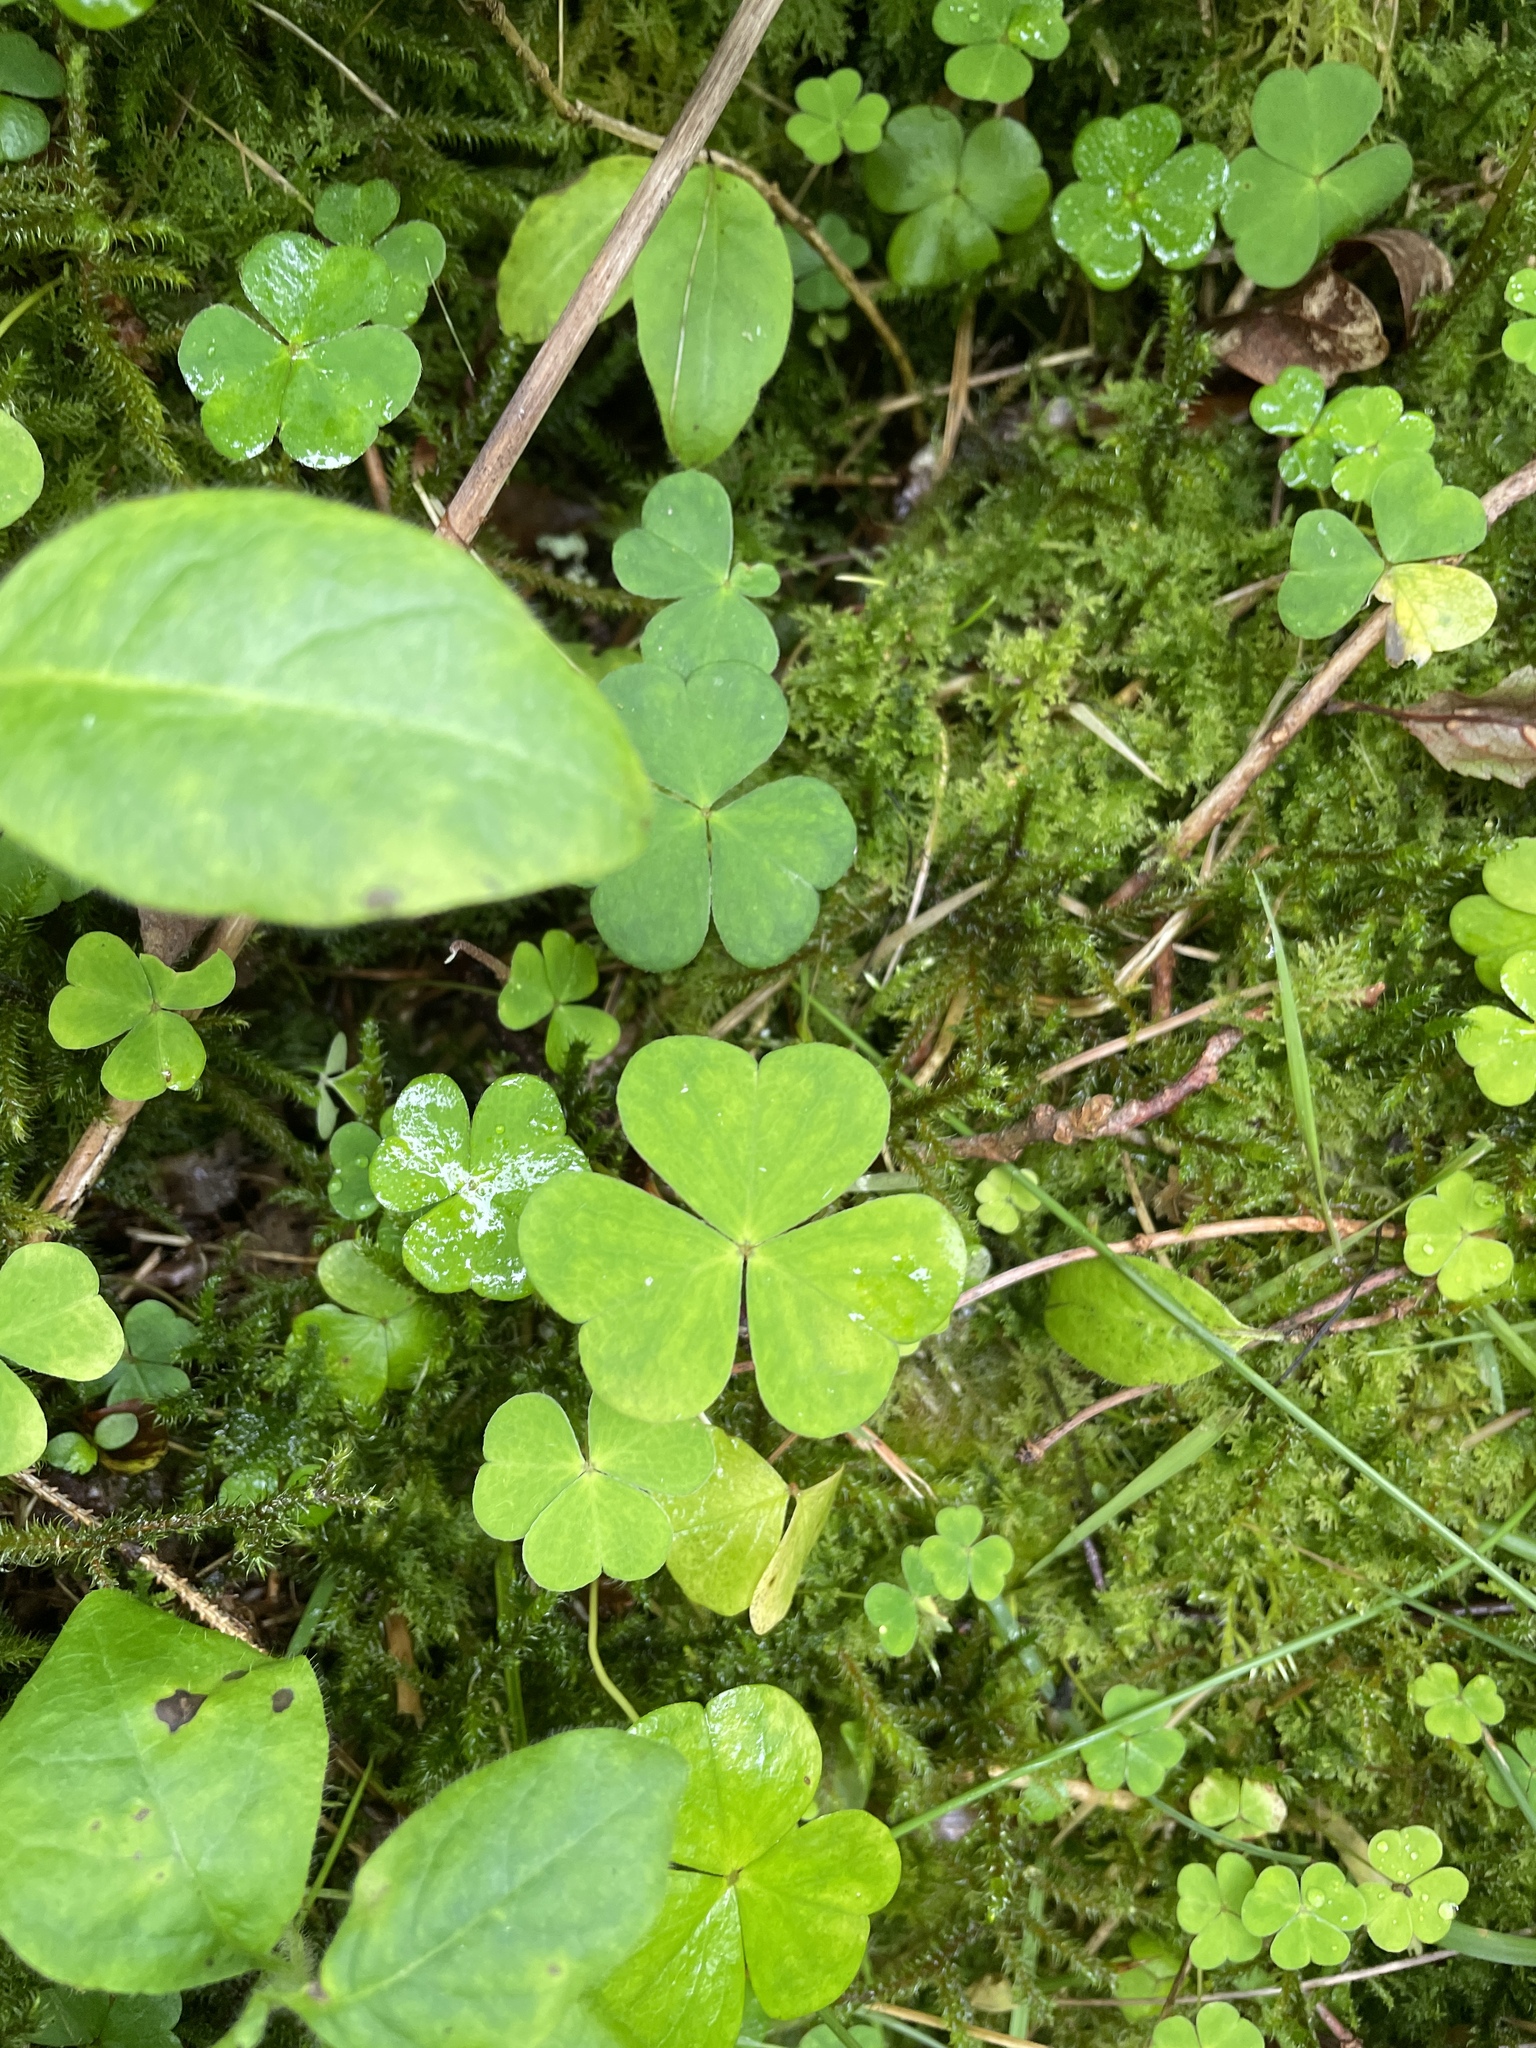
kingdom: Plantae
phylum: Tracheophyta
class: Magnoliopsida
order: Oxalidales
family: Oxalidaceae
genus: Oxalis
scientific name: Oxalis acetosella
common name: Wood-sorrel
